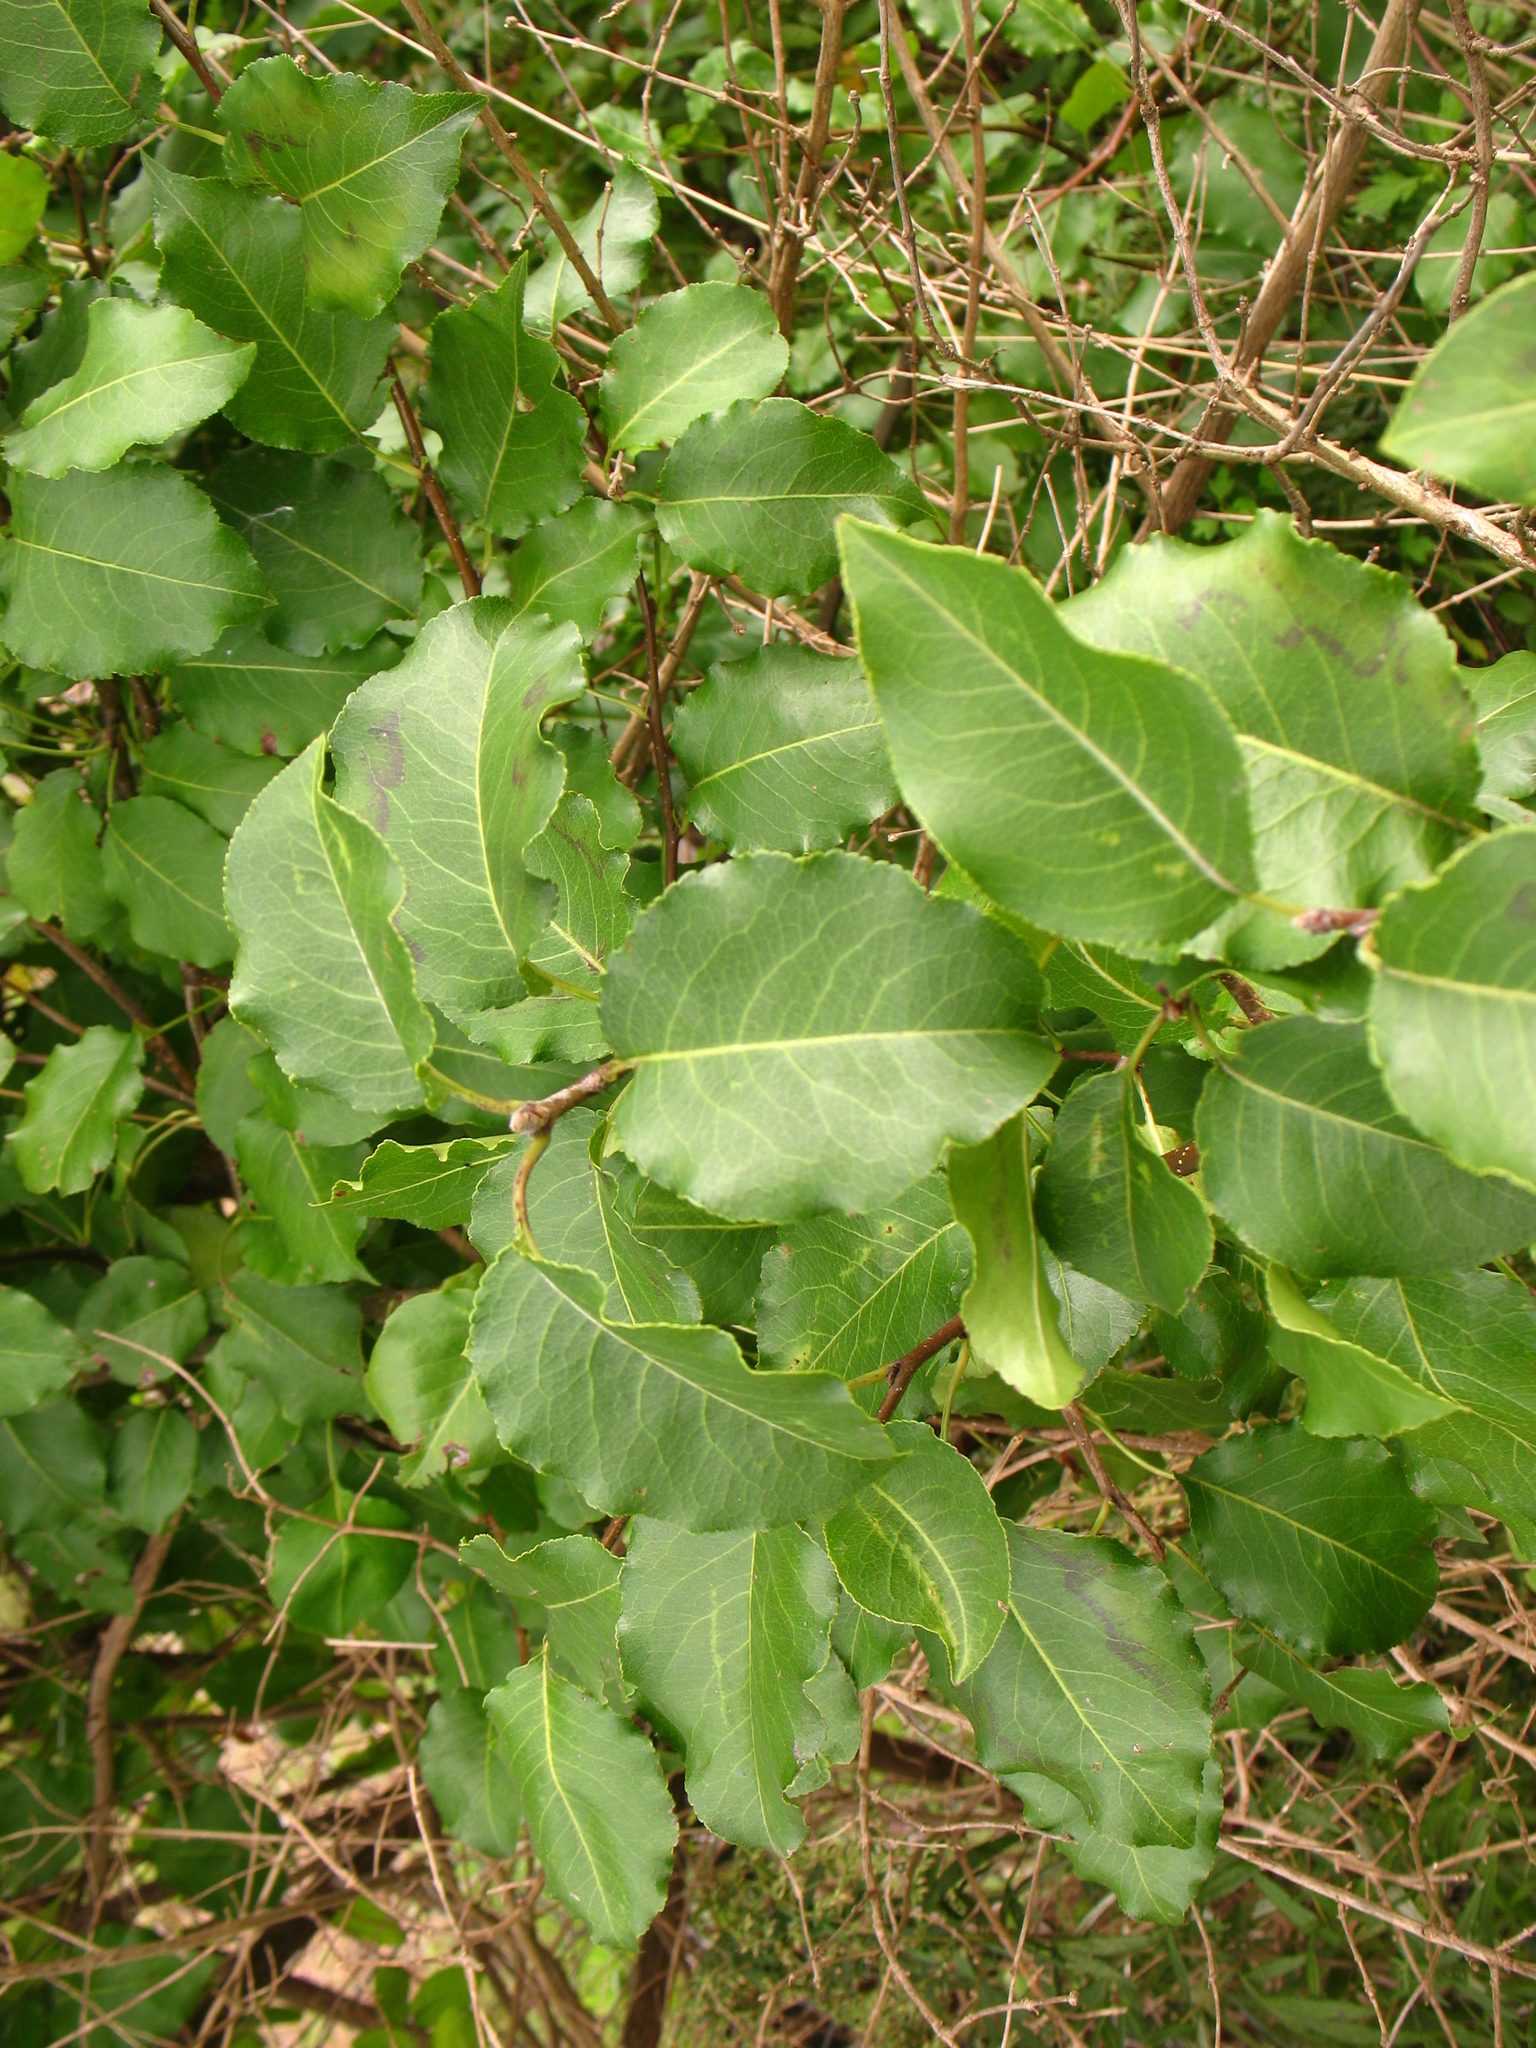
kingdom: Plantae
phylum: Tracheophyta
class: Magnoliopsida
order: Rosales
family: Rosaceae
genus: Pyrus
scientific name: Pyrus calleryana
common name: Callery pear
